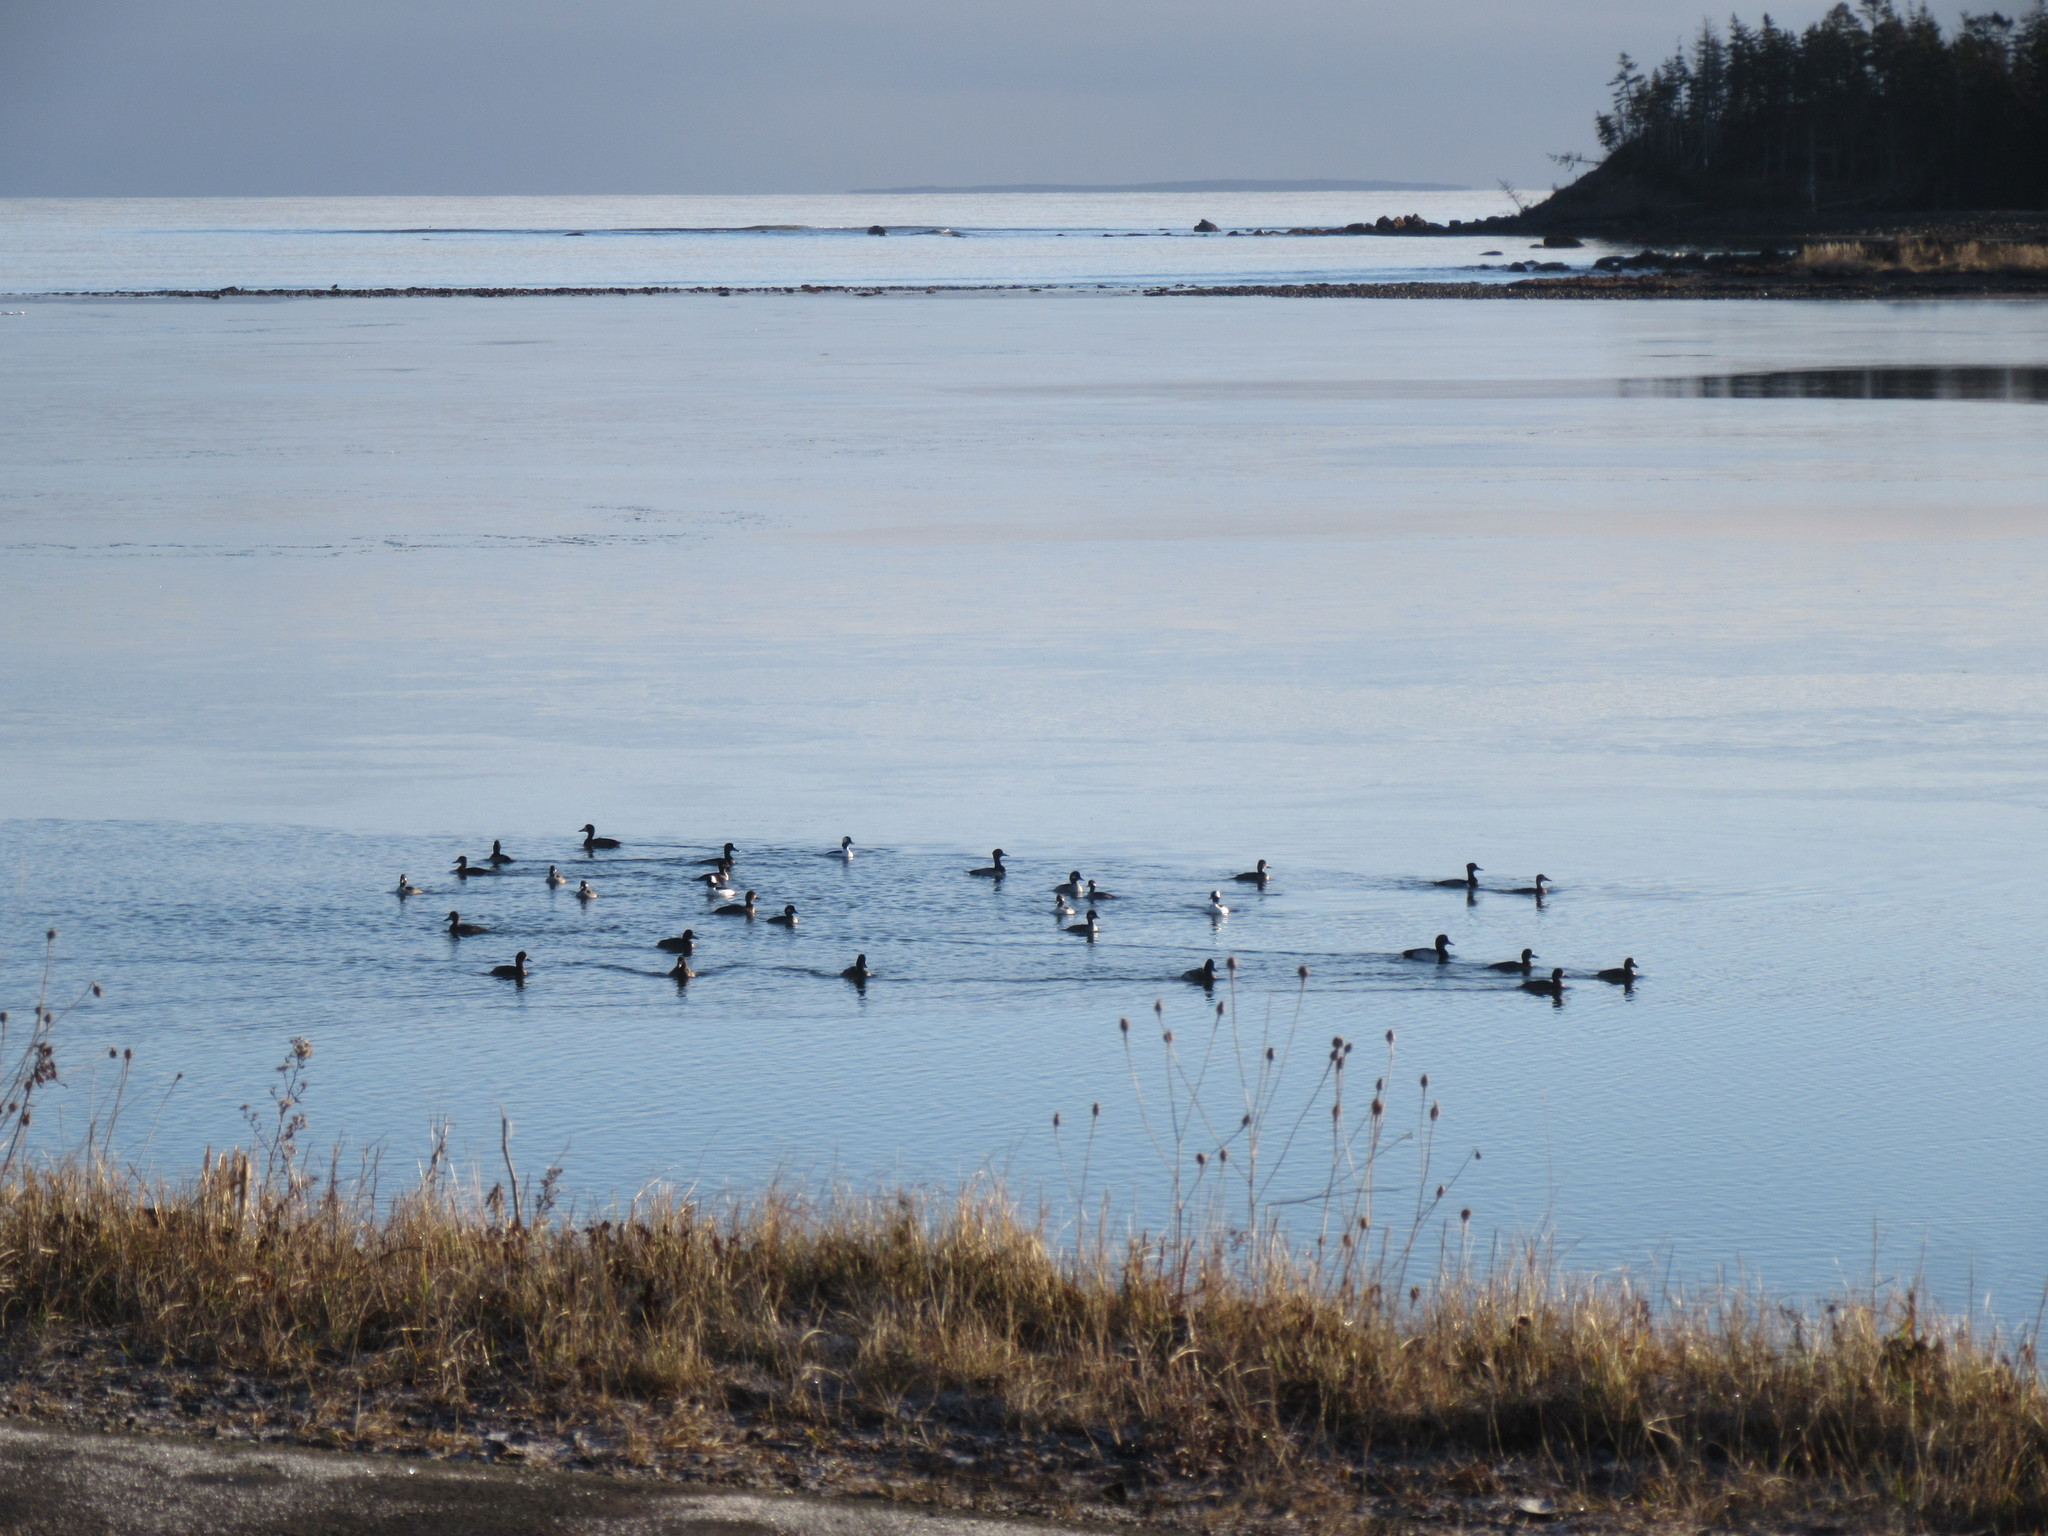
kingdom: Animalia
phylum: Chordata
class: Aves
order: Anseriformes
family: Anatidae
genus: Aythya
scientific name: Aythya marila
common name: Greater scaup
